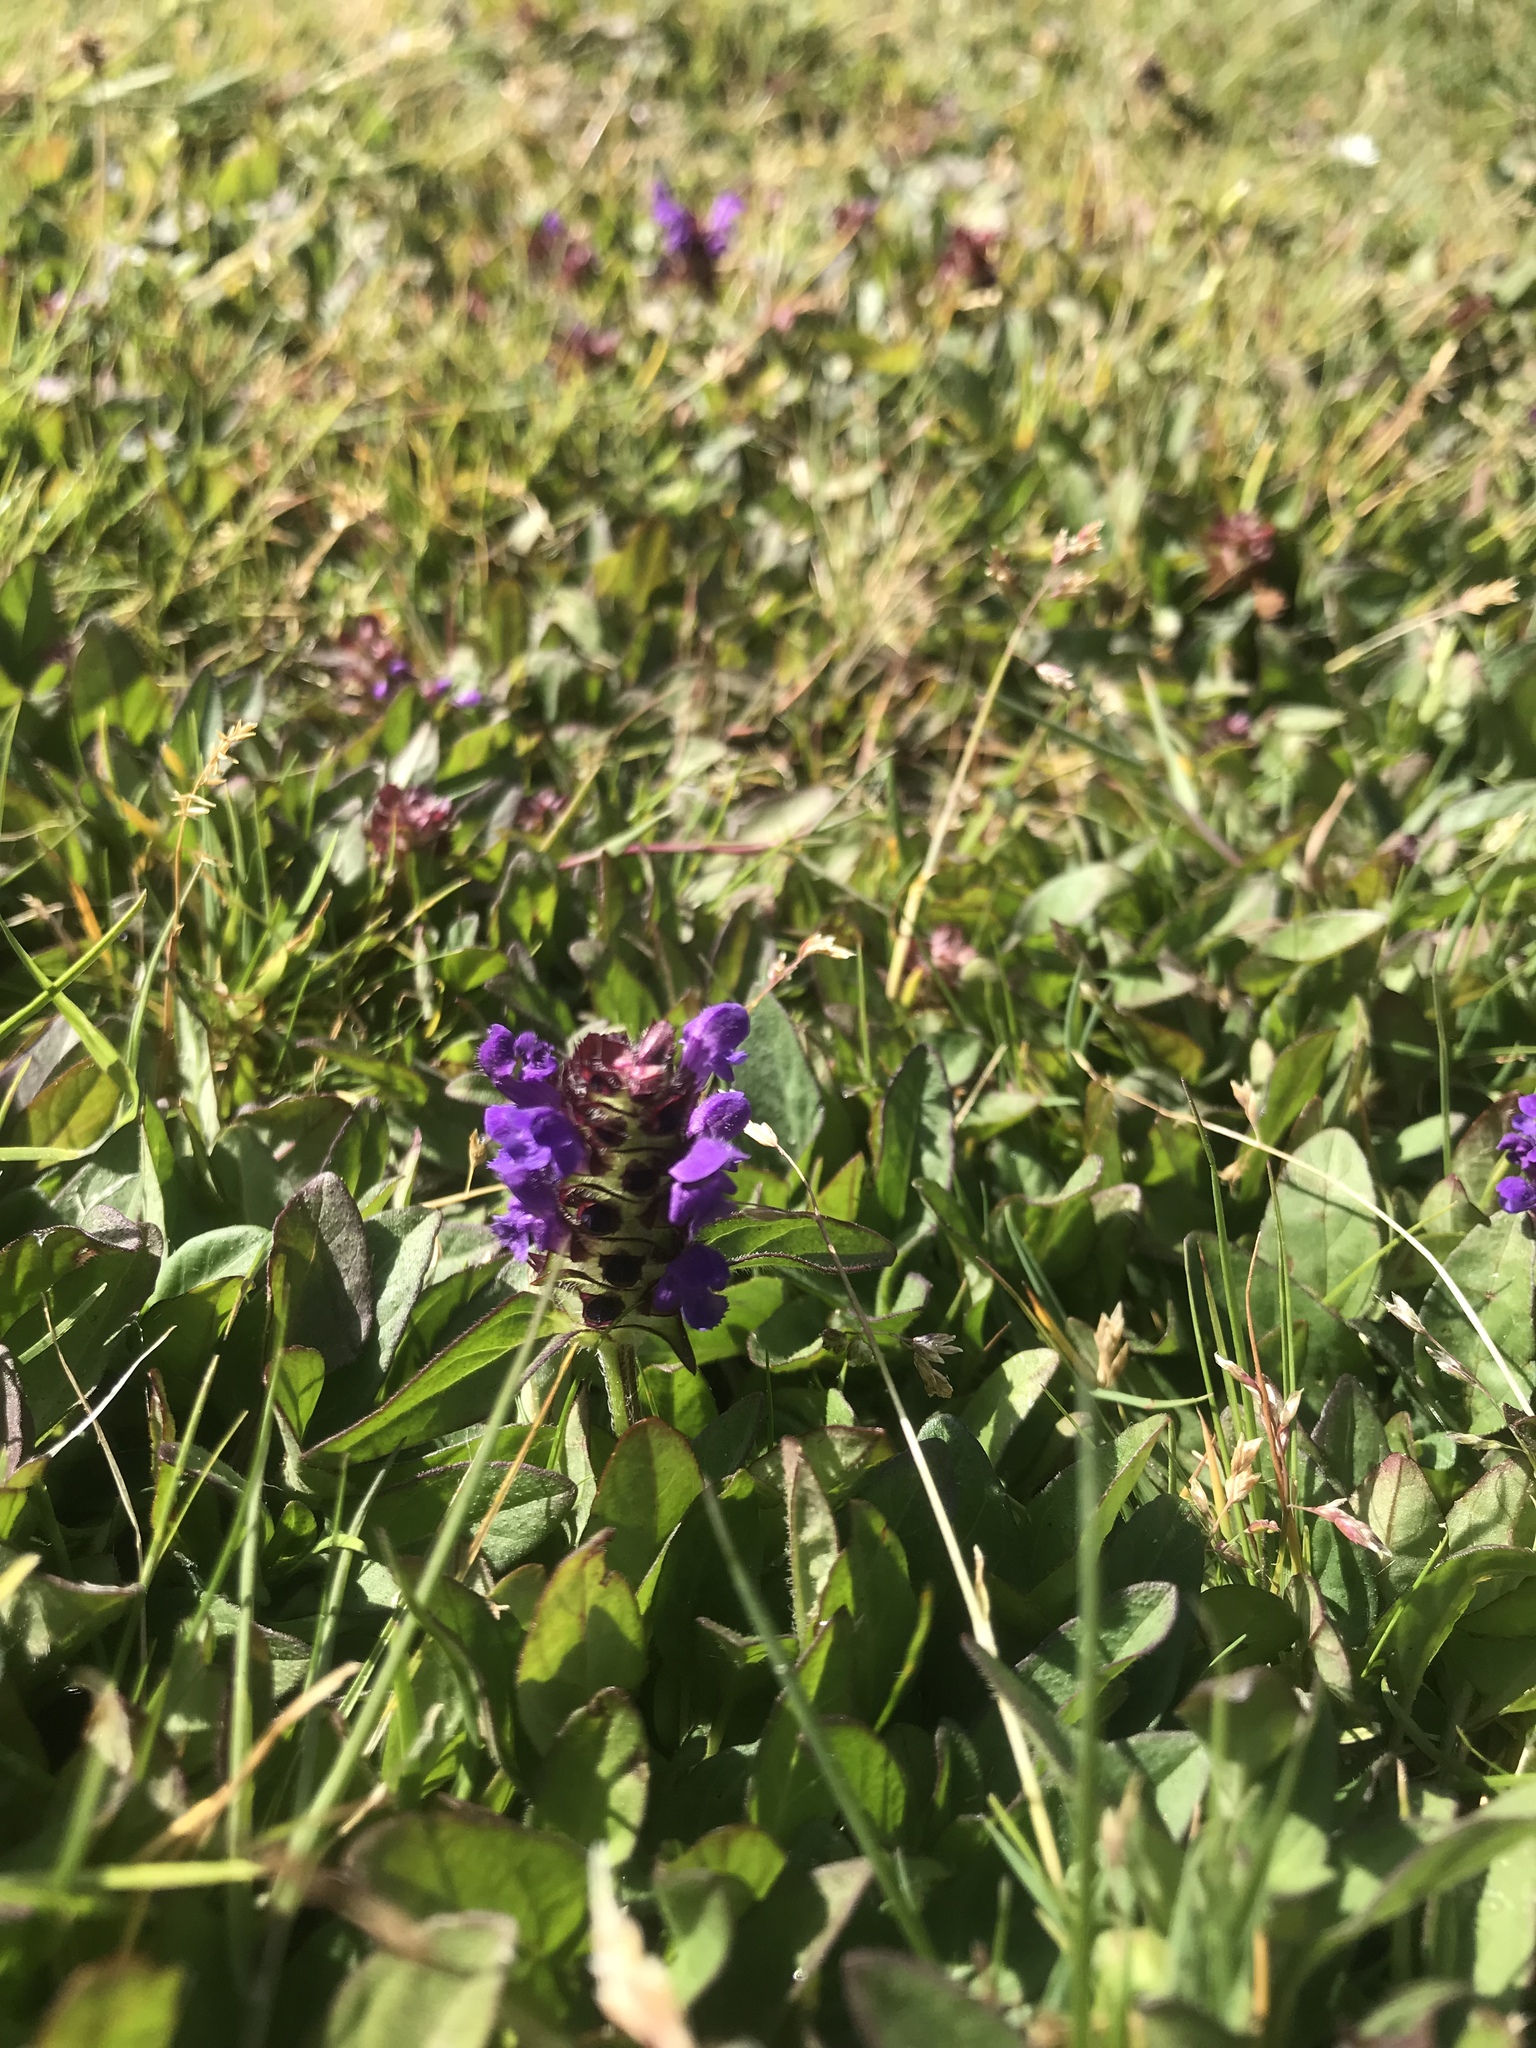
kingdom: Plantae
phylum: Tracheophyta
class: Magnoliopsida
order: Lamiales
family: Lamiaceae
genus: Prunella
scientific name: Prunella vulgaris
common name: Heal-all
